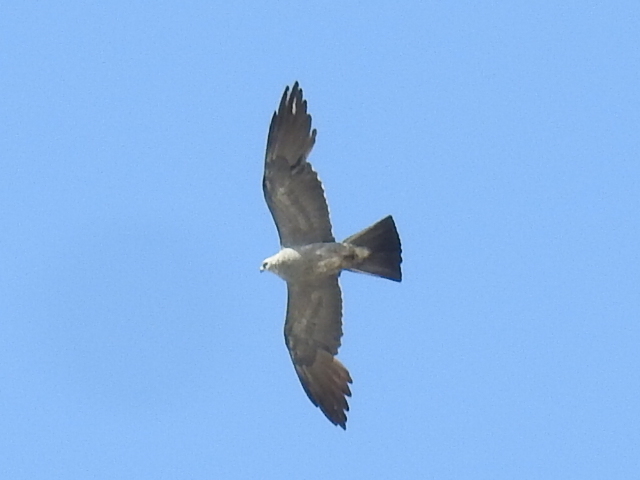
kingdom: Animalia
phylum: Chordata
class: Aves
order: Accipitriformes
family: Accipitridae
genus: Ictinia
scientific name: Ictinia mississippiensis
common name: Mississippi kite
